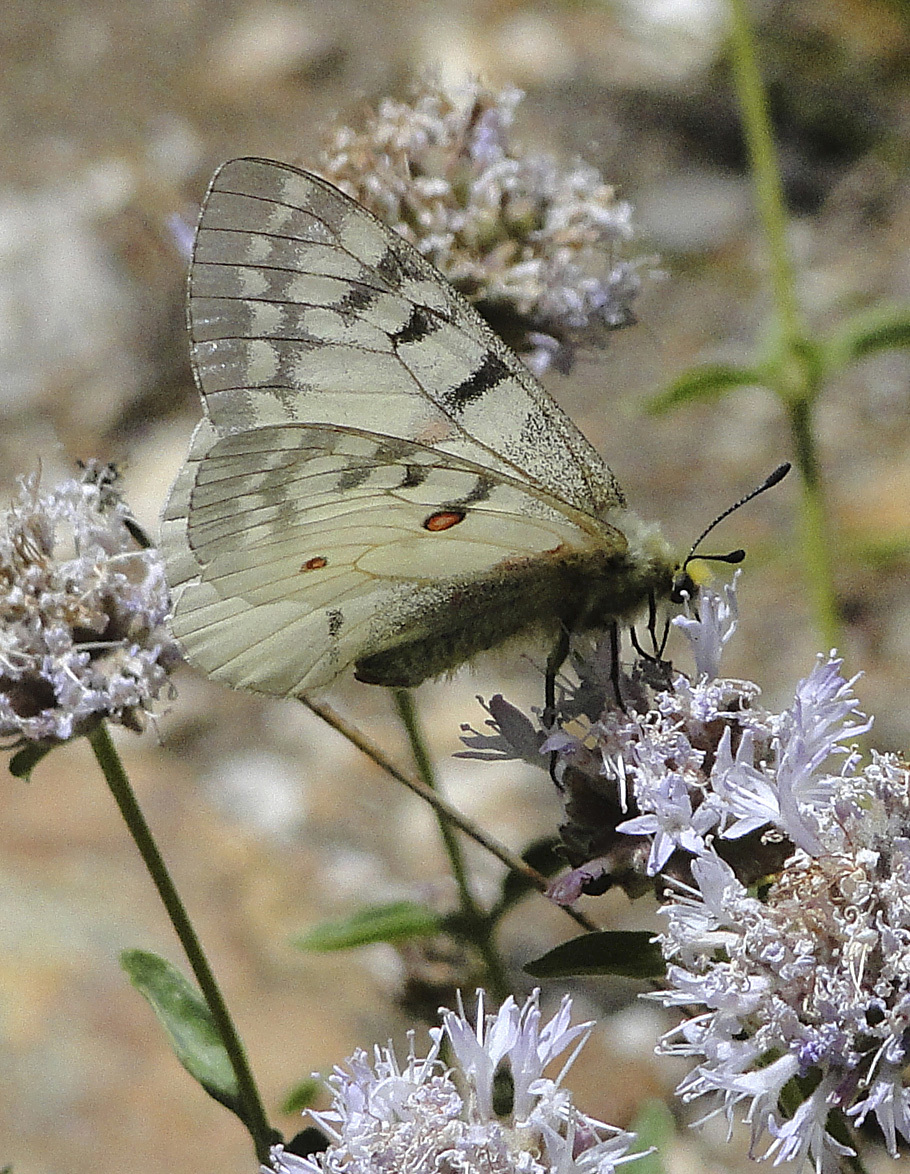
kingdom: Animalia
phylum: Arthropoda
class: Insecta
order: Lepidoptera
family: Papilionidae
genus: Parnassius
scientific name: Parnassius clodius
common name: American apollo
